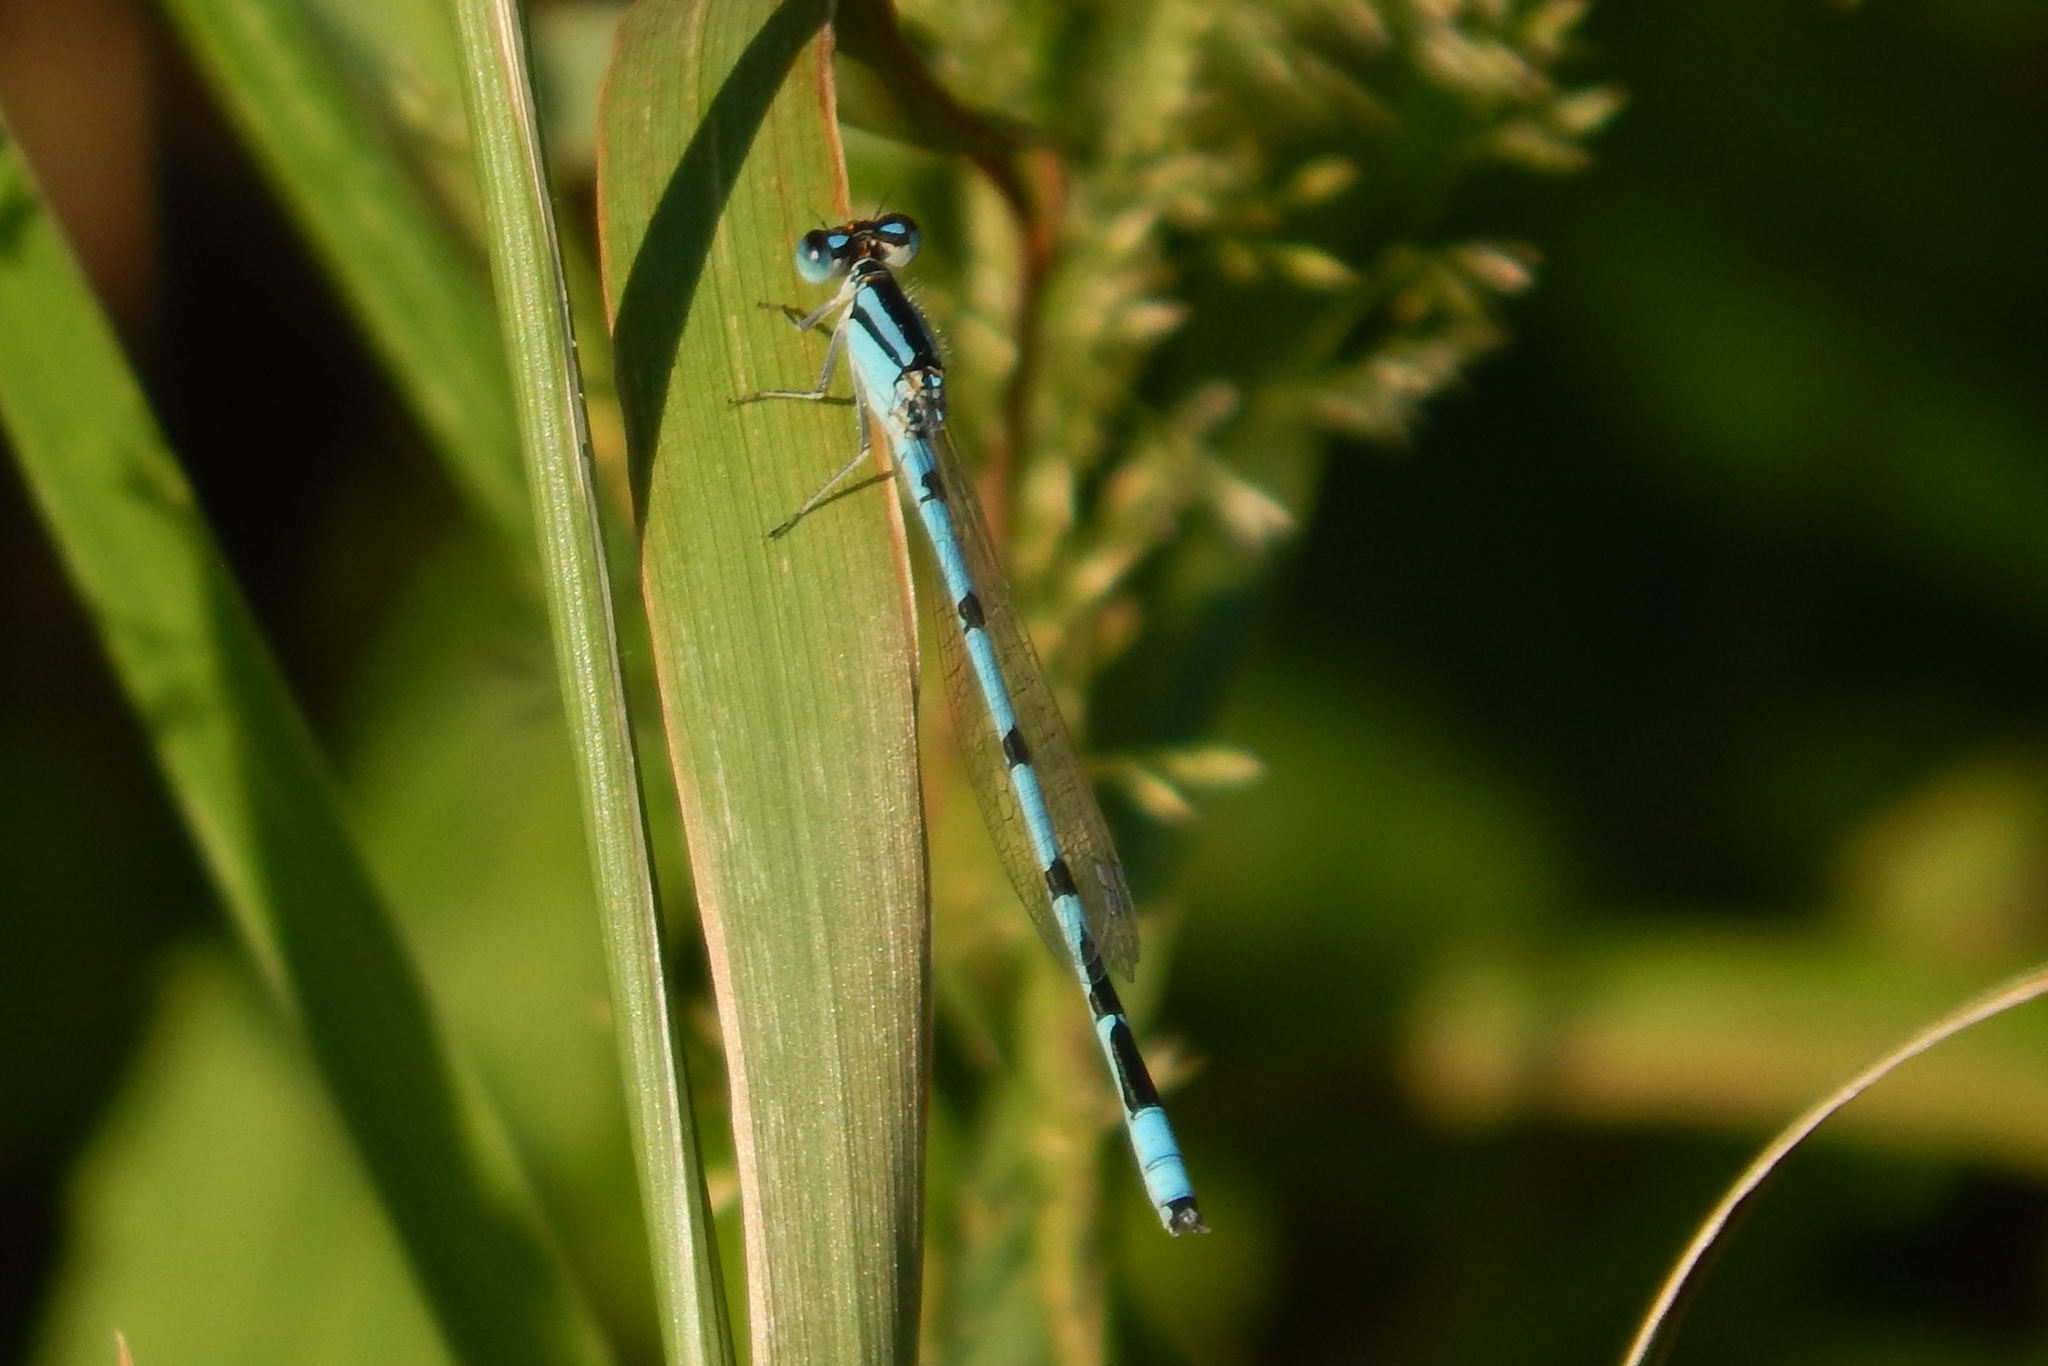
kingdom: Animalia
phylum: Arthropoda
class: Insecta
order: Odonata
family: Coenagrionidae
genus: Enallagma
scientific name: Enallagma civile
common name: Damselfly
